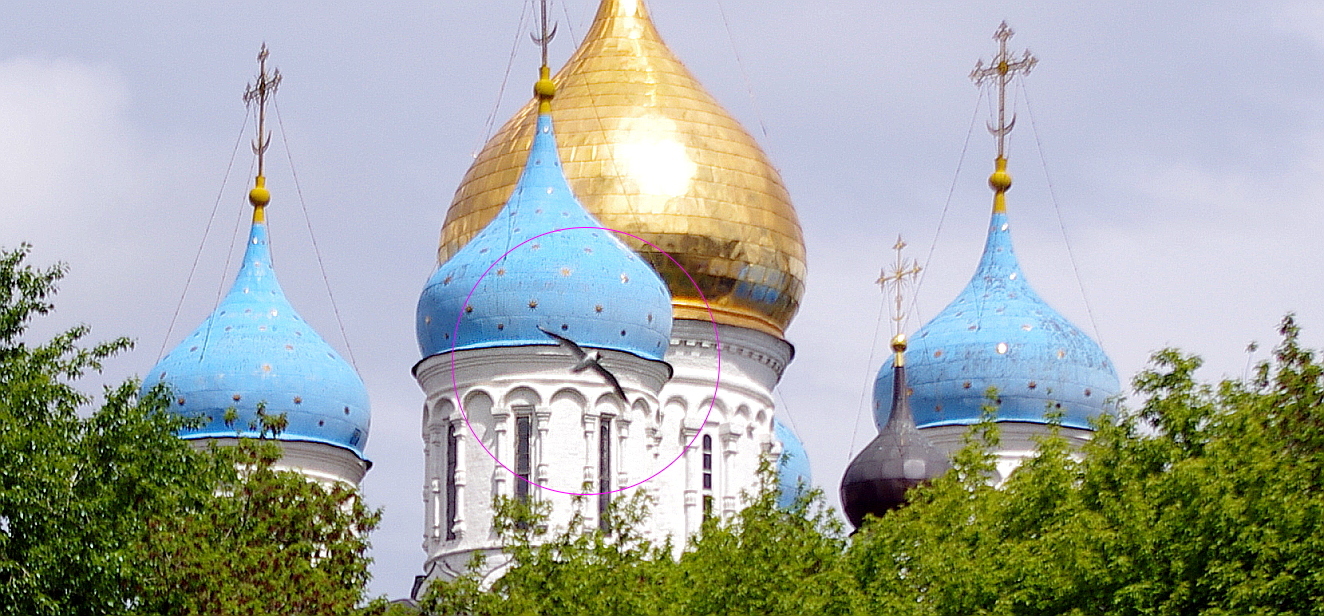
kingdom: Animalia
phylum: Chordata
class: Aves
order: Charadriiformes
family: Laridae
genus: Chroicocephalus
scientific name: Chroicocephalus ridibundus
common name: Black-headed gull
